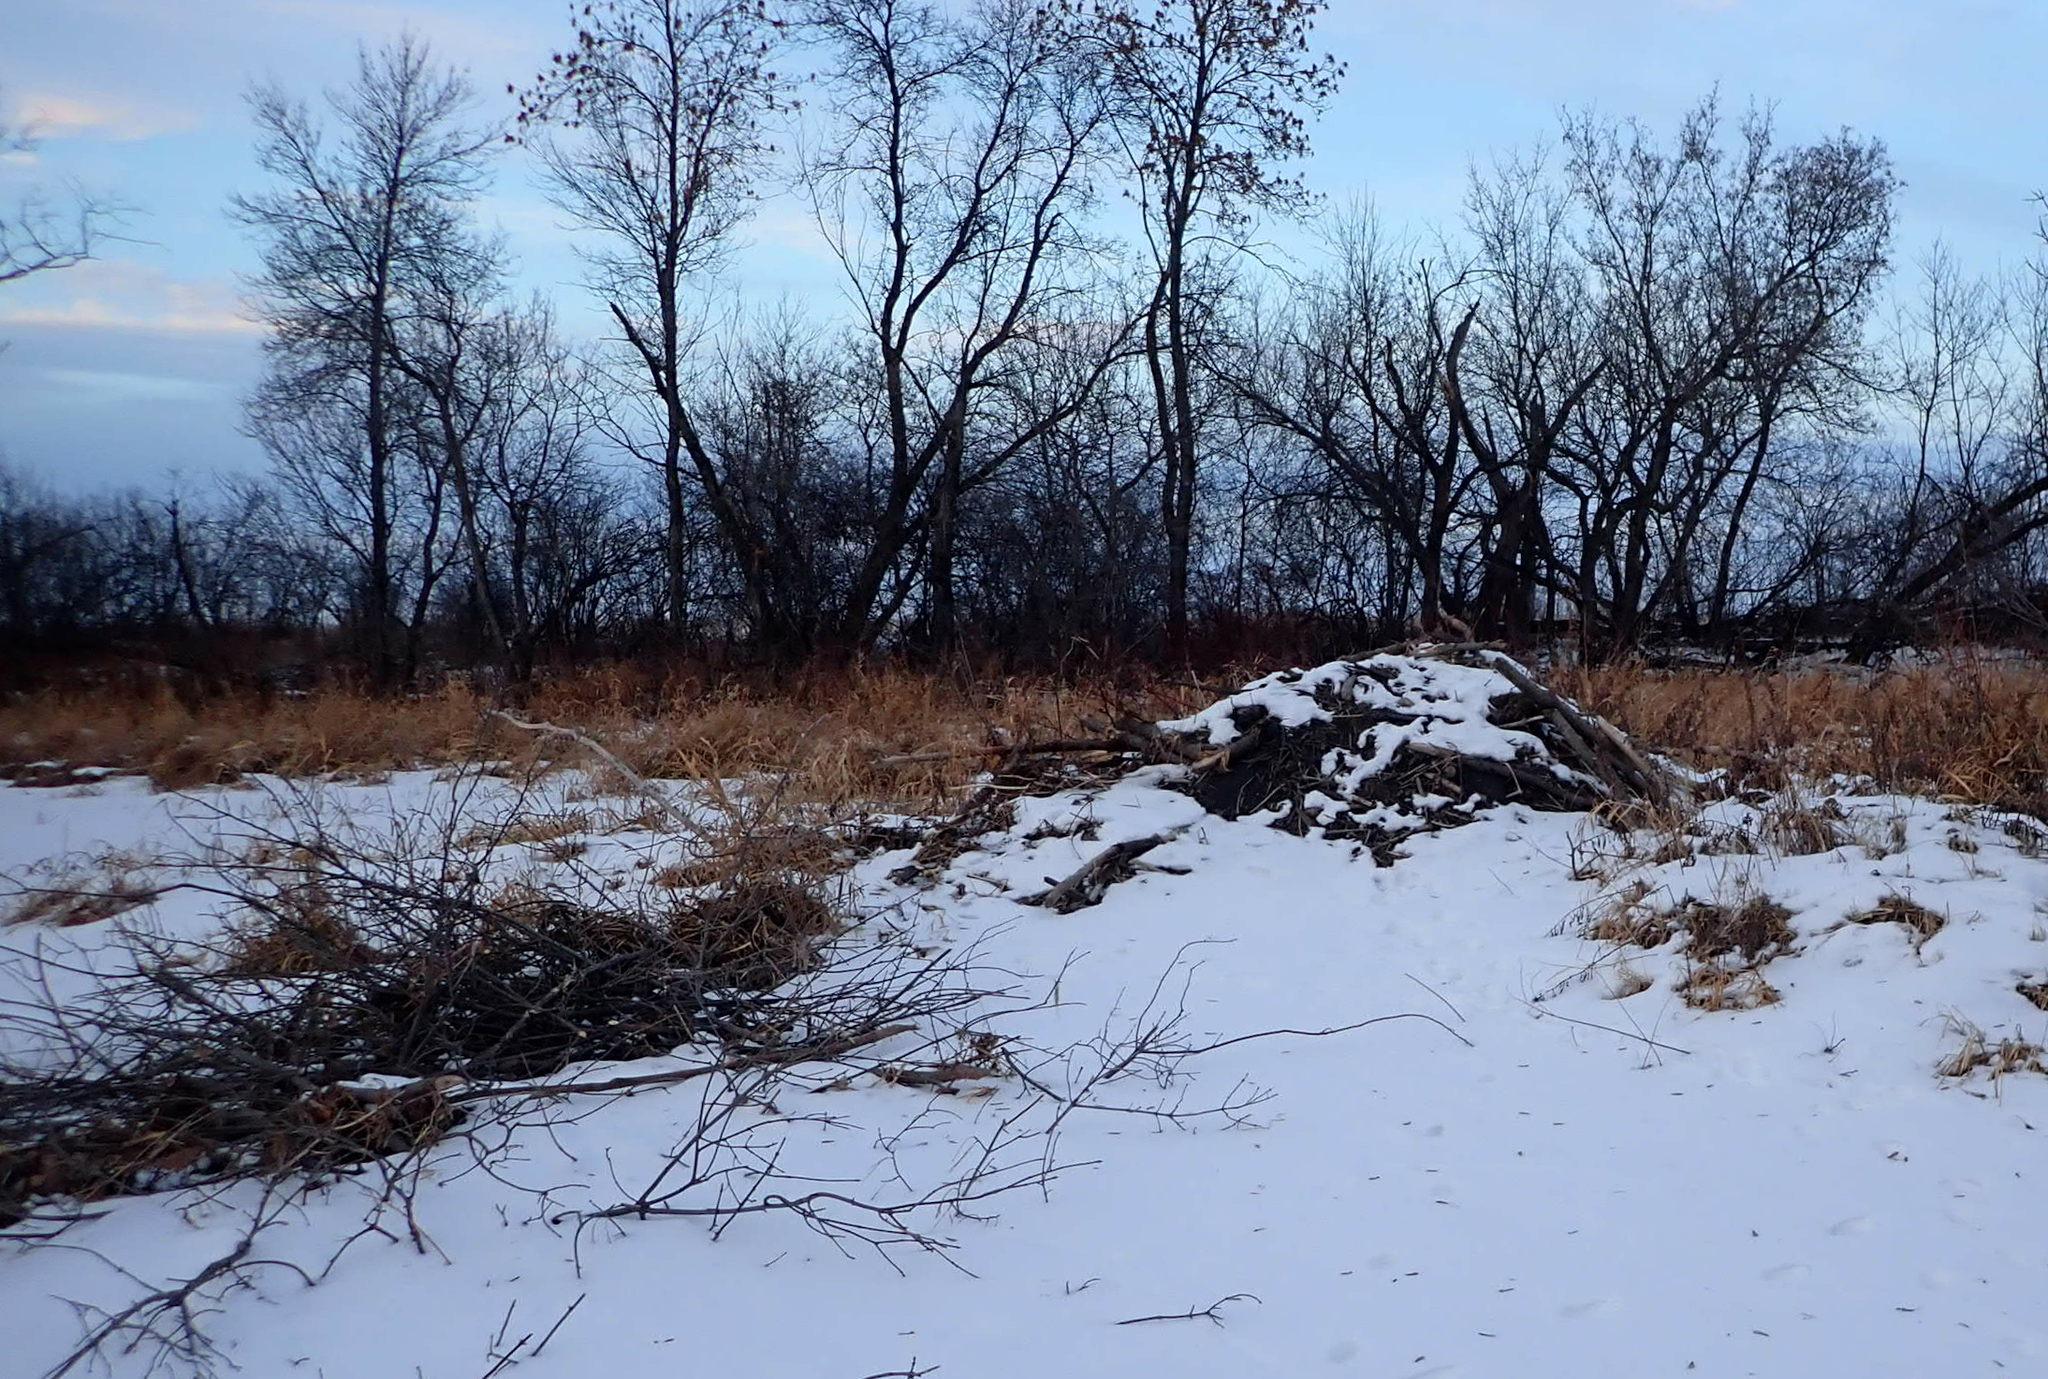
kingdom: Animalia
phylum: Chordata
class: Mammalia
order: Rodentia
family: Castoridae
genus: Castor
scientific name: Castor canadensis
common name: American beaver
